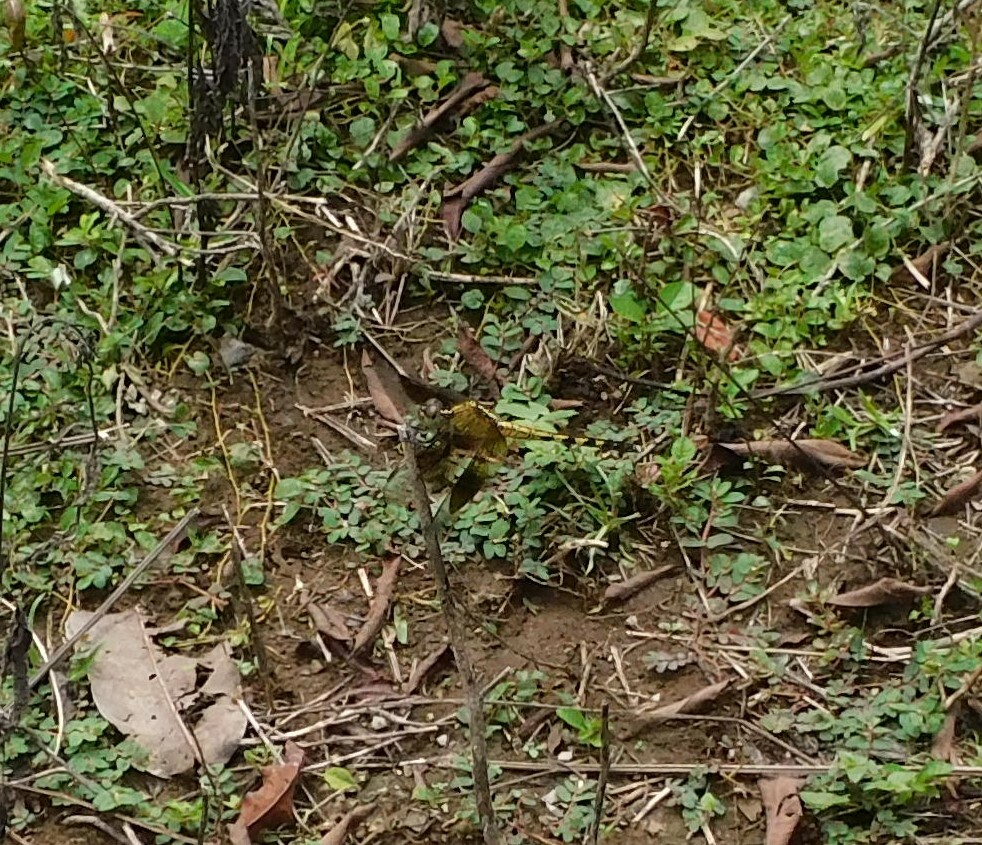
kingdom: Animalia
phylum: Arthropoda
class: Insecta
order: Odonata
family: Libellulidae
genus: Erythrodiplax
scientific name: Erythrodiplax funerea
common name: Black-winged dragonlet
